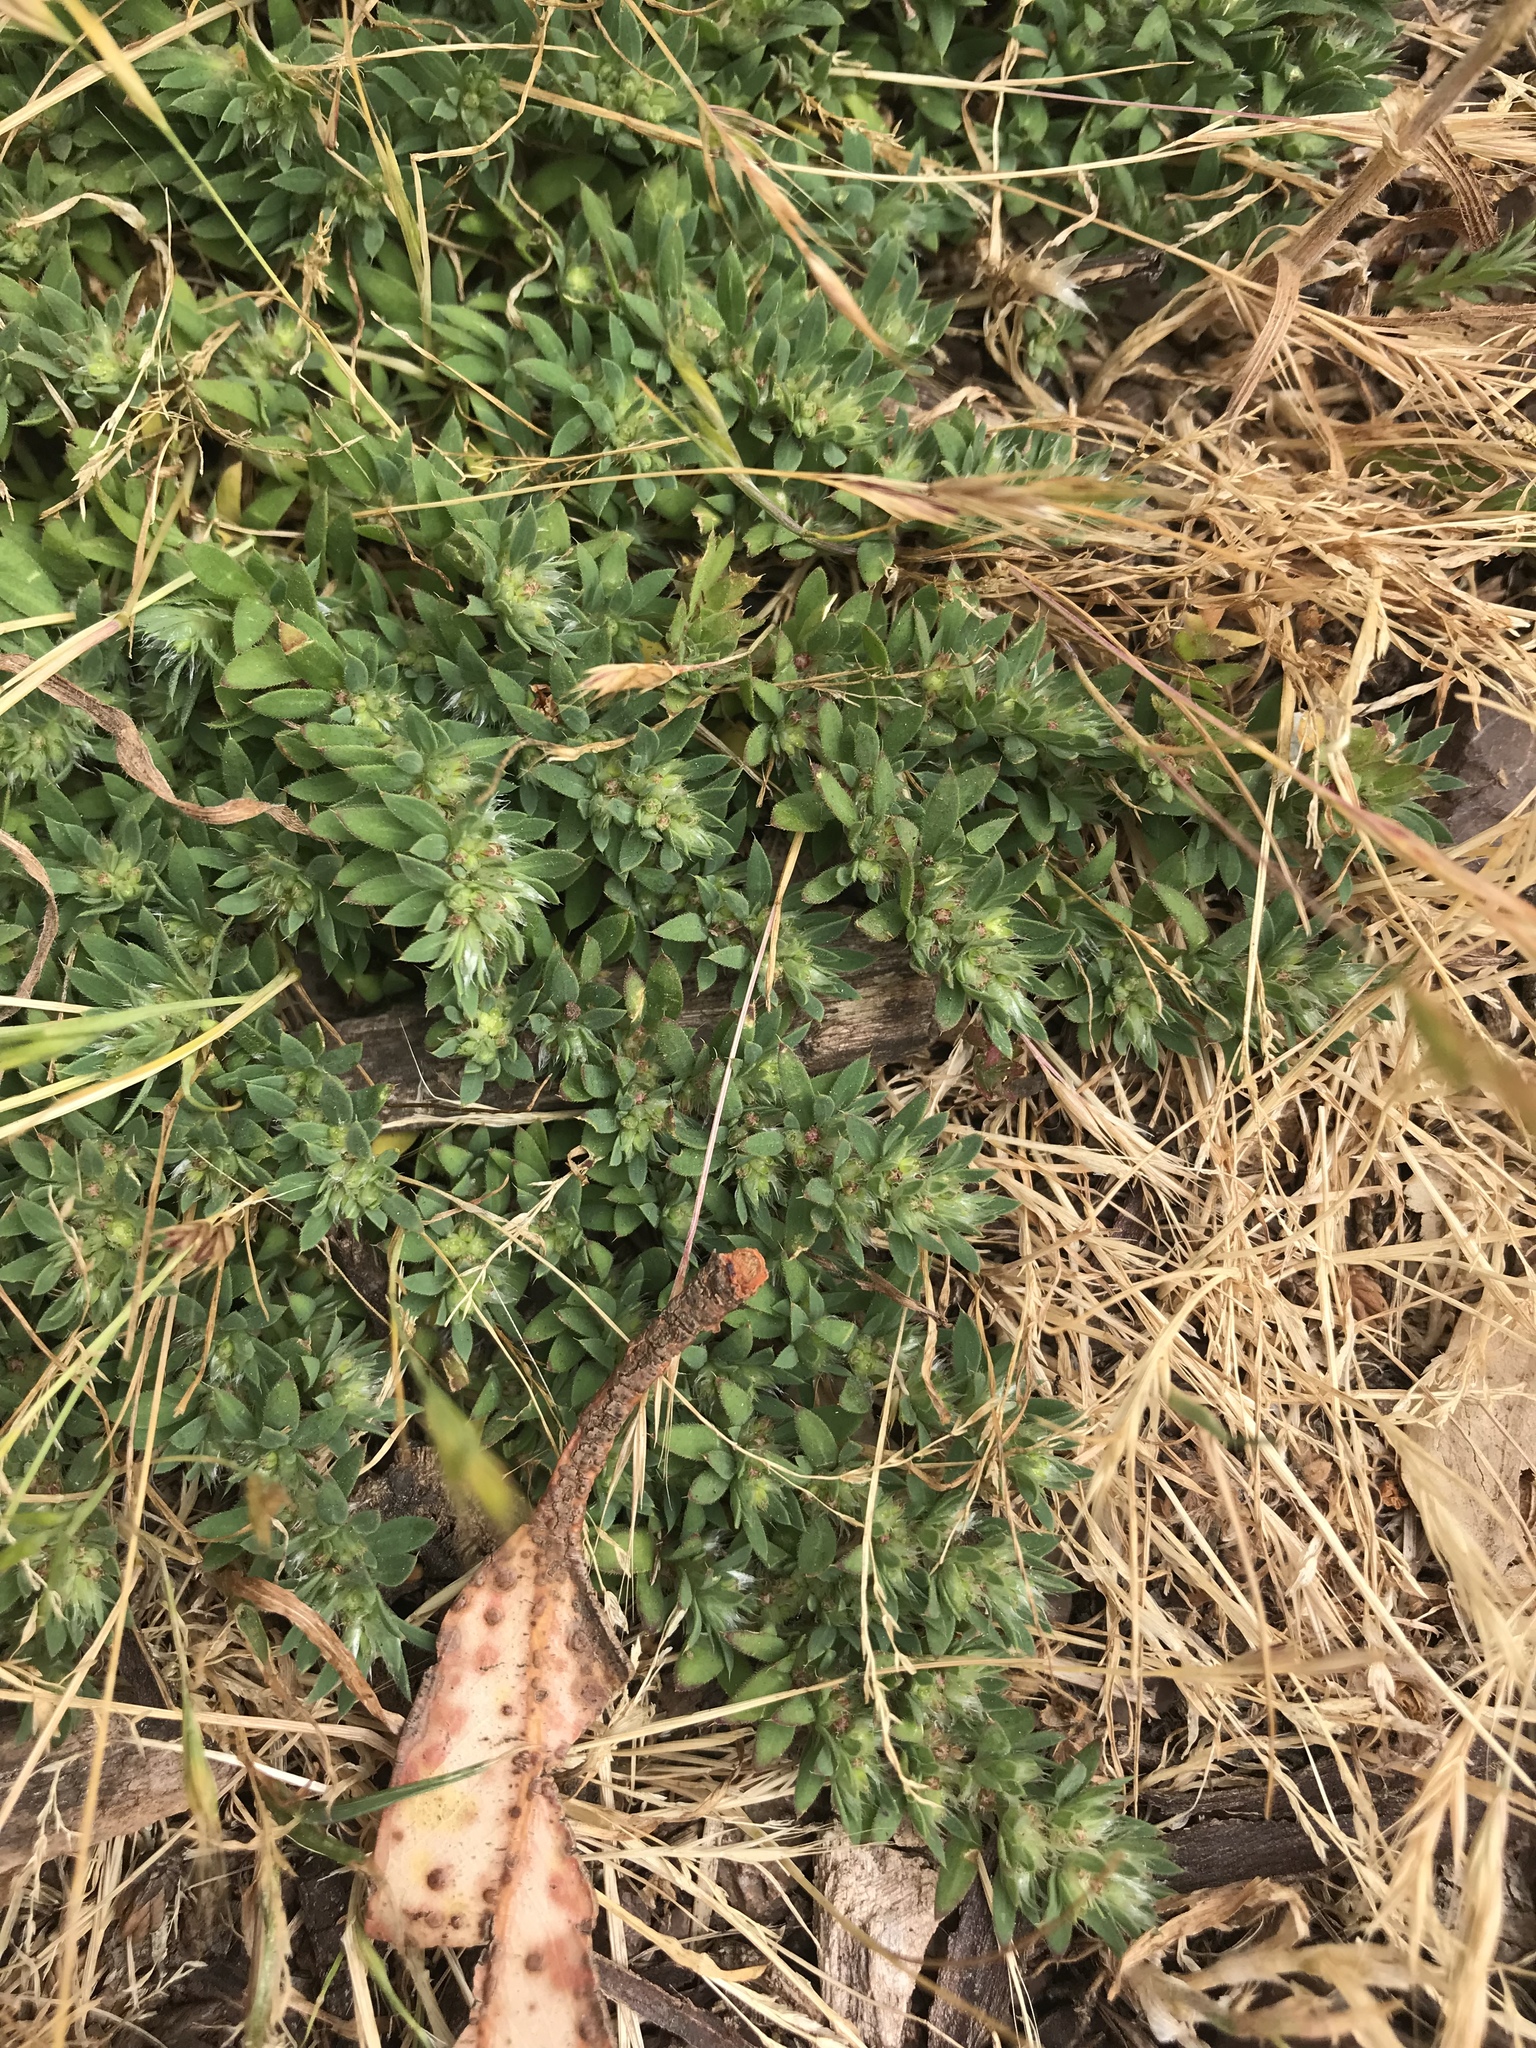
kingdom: Plantae
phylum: Tracheophyta
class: Magnoliopsida
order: Caryophyllales
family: Caryophyllaceae
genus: Cardionema
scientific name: Cardionema ramosissima
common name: Sandcarpet
